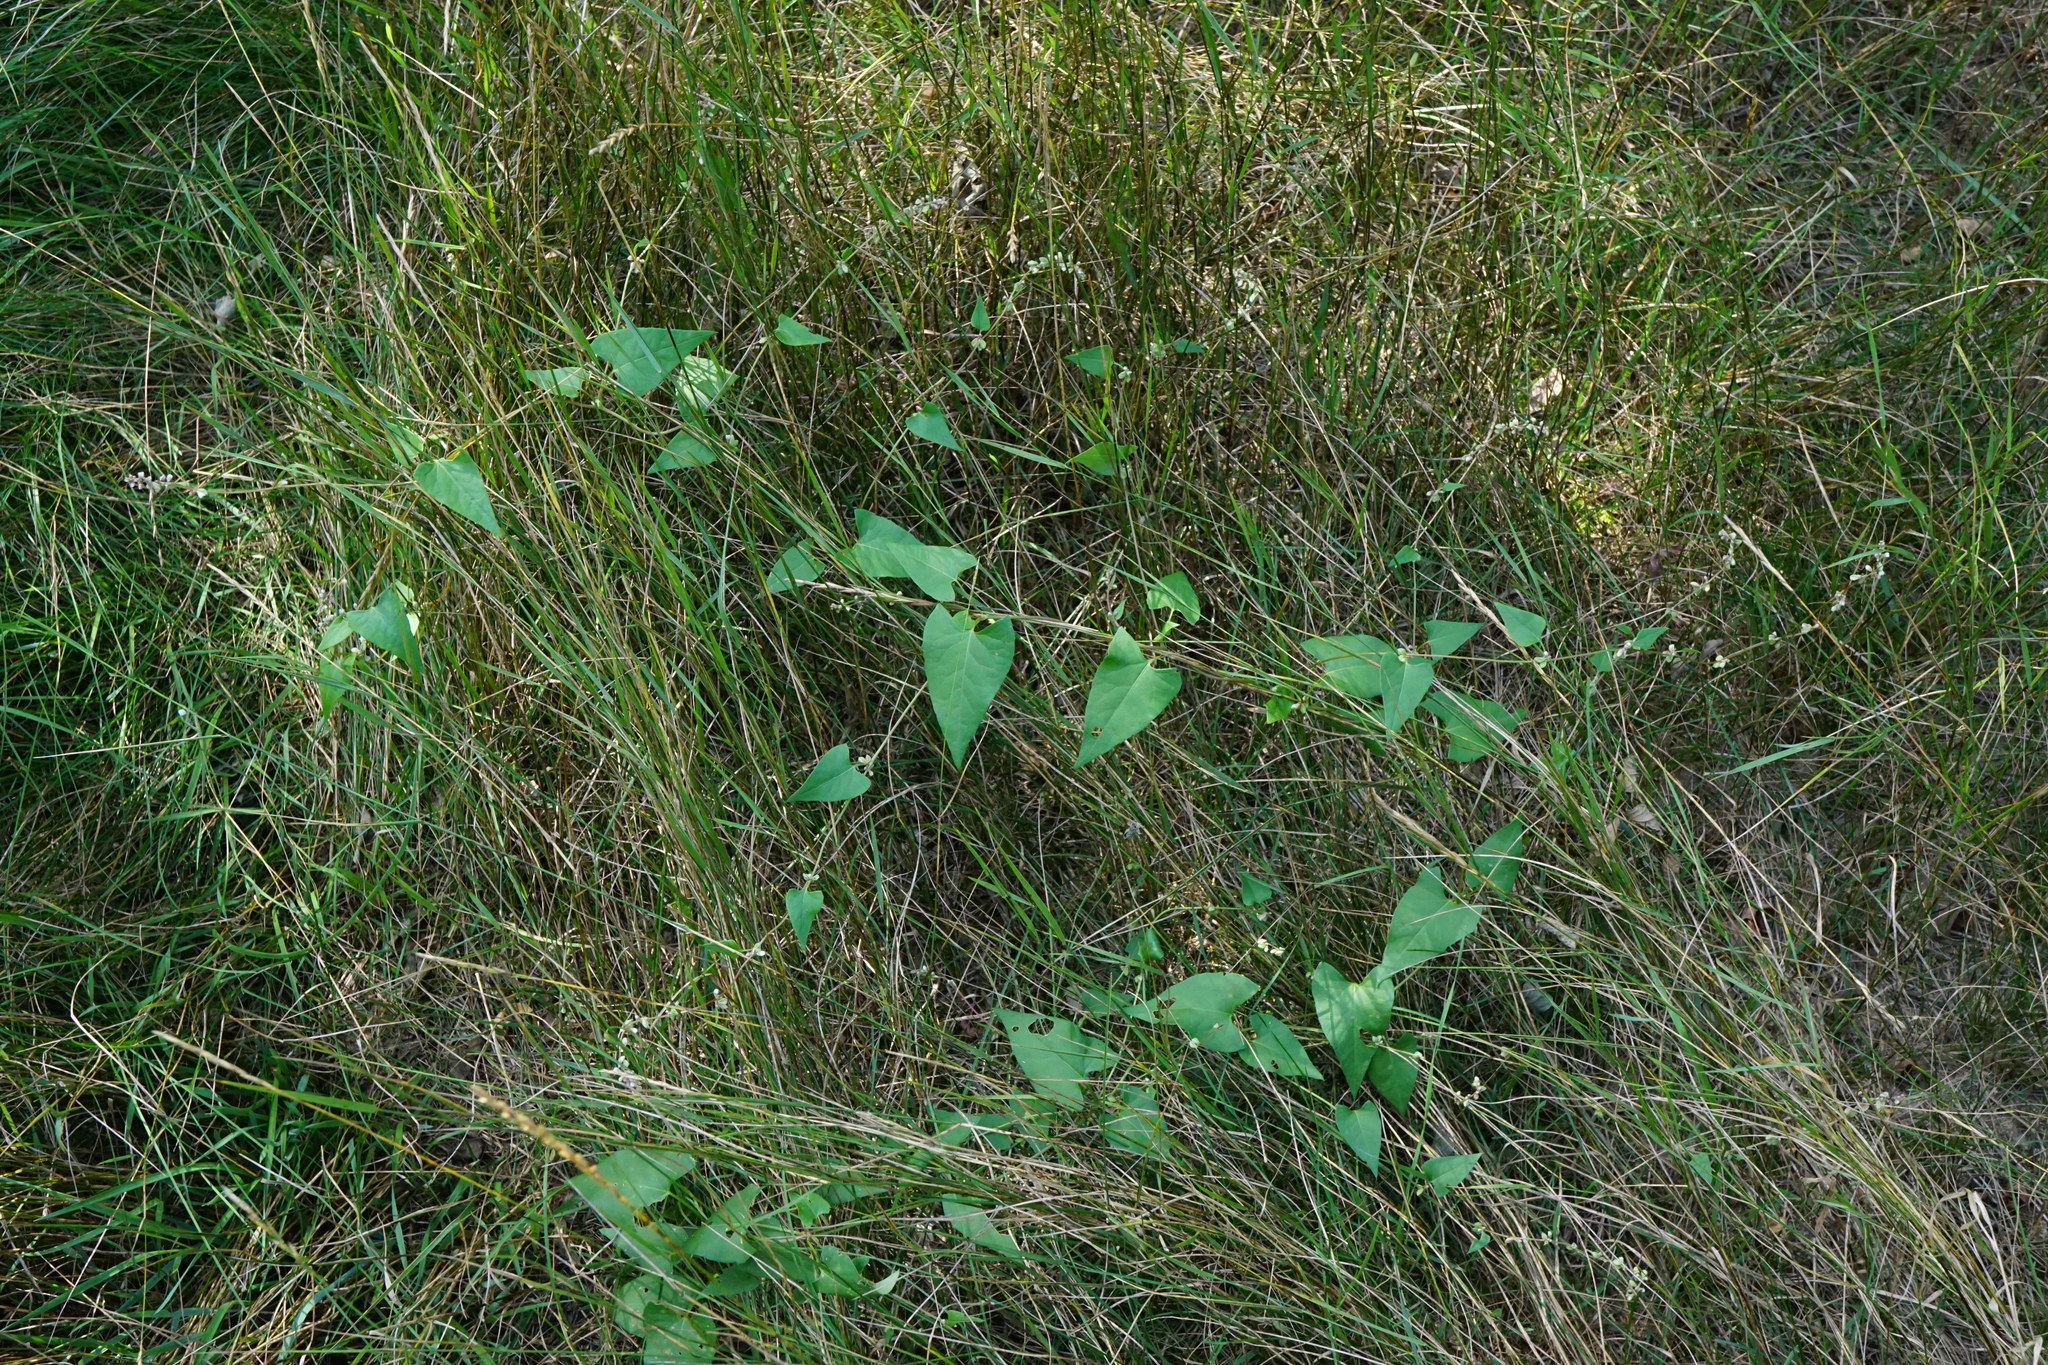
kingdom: Plantae
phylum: Tracheophyta
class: Magnoliopsida
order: Caryophyllales
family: Polygonaceae
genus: Fallopia
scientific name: Fallopia convolvulus
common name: Black bindweed
